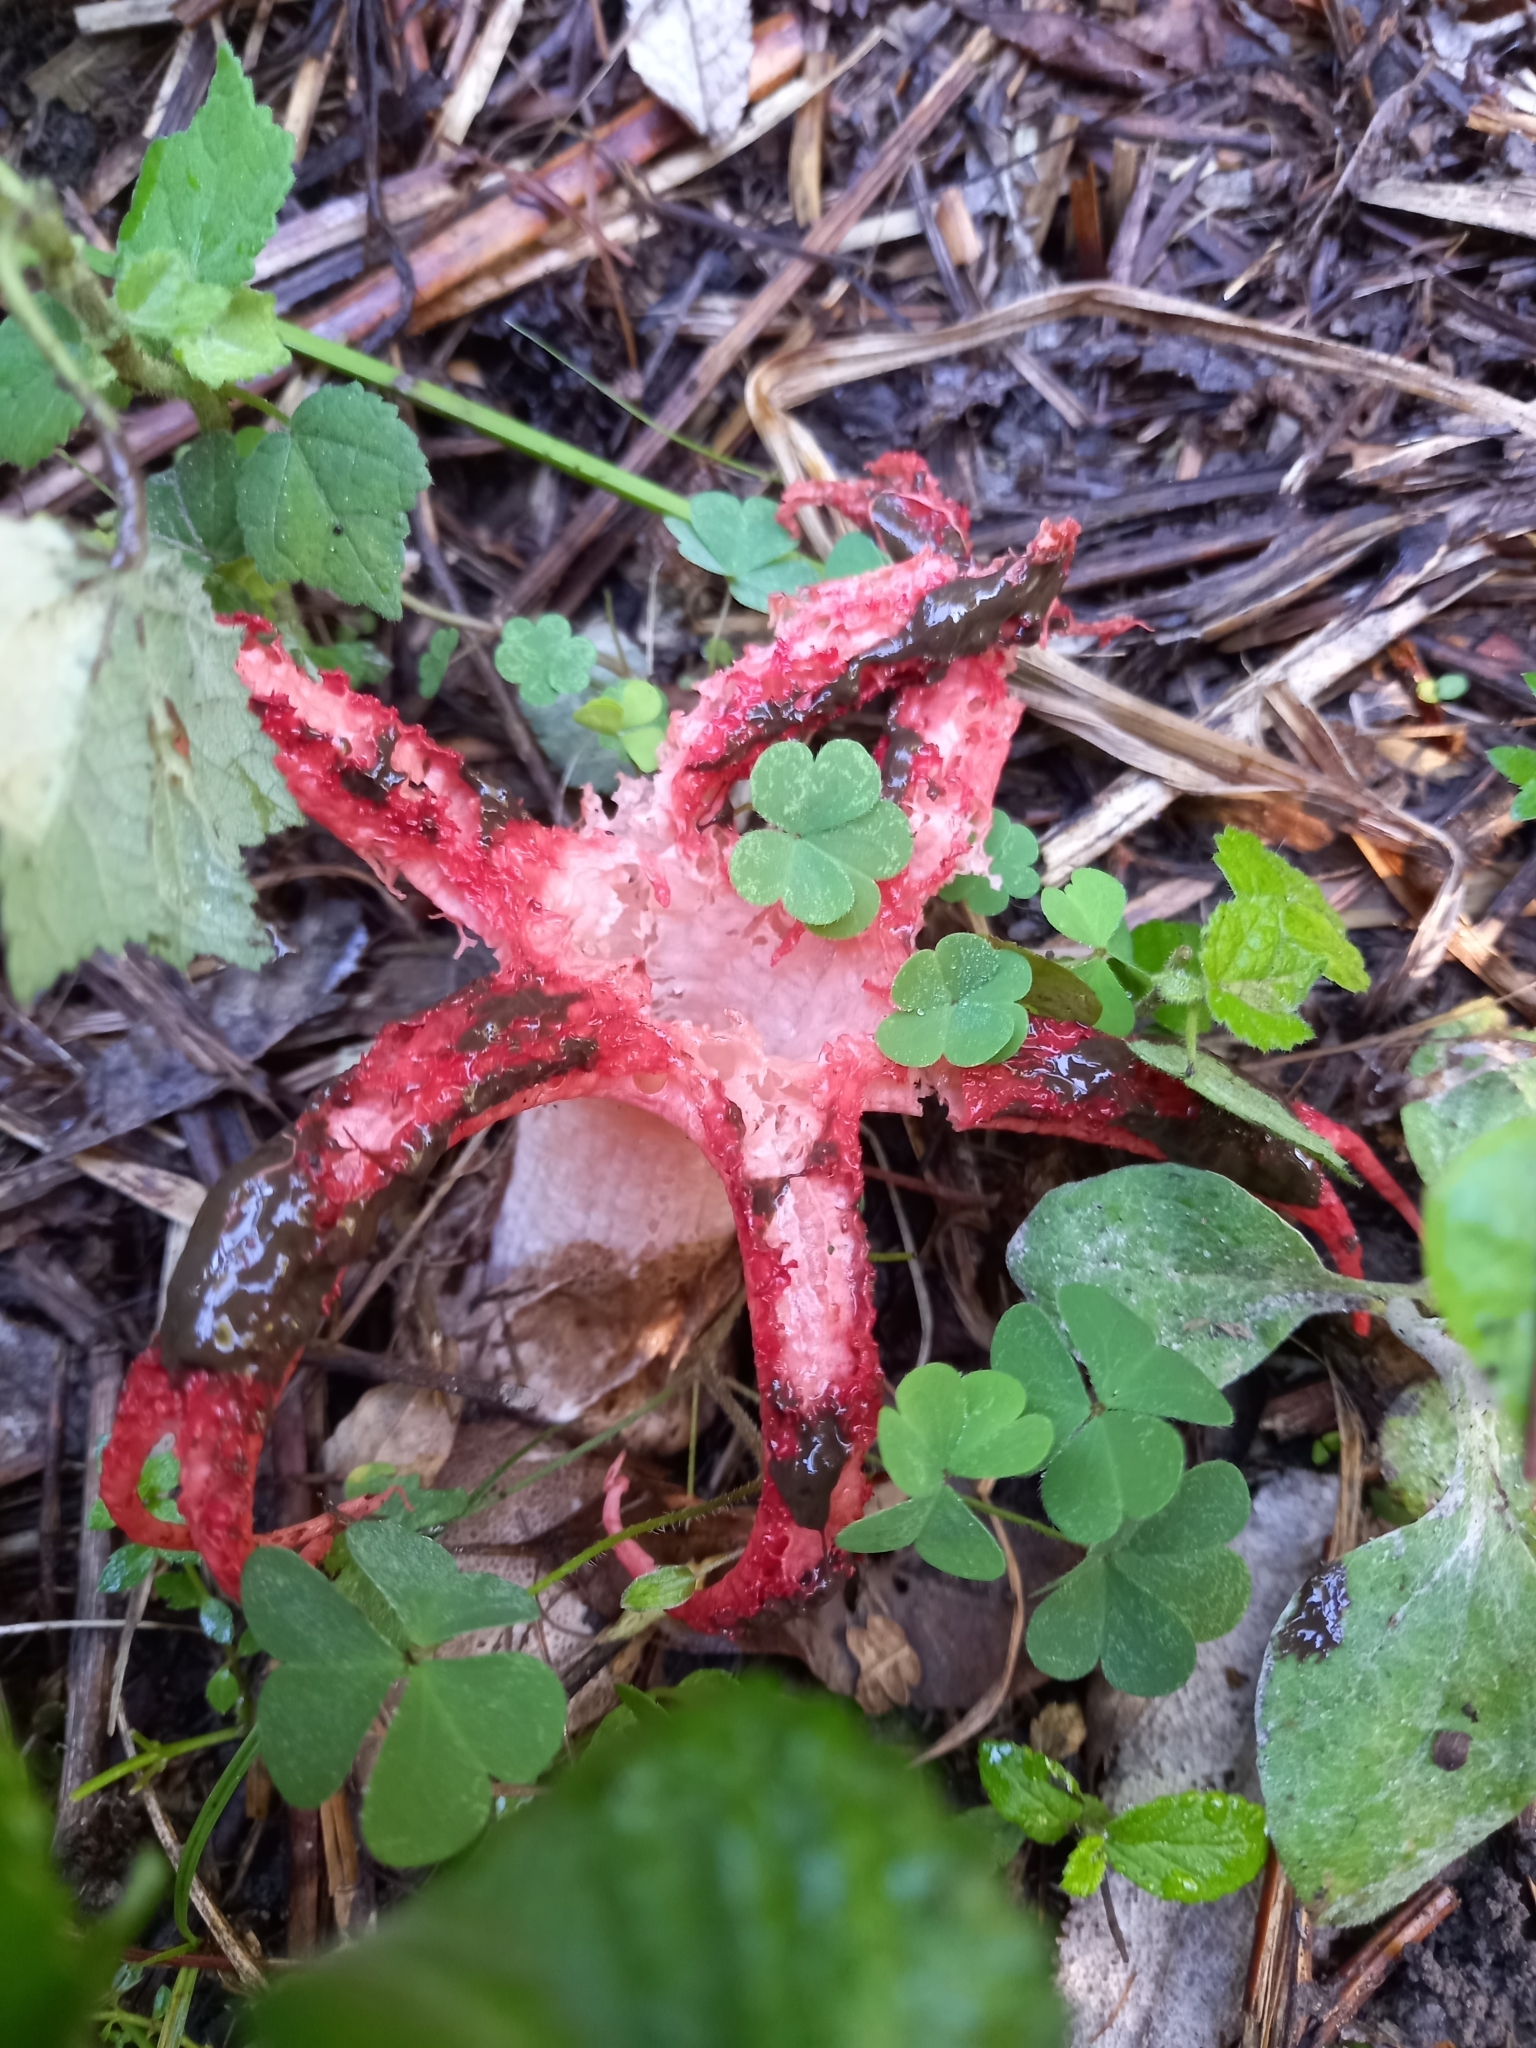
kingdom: Fungi
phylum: Basidiomycota
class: Agaricomycetes
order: Phallales
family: Phallaceae
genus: Clathrus
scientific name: Clathrus archeri
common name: Devil's fingers
